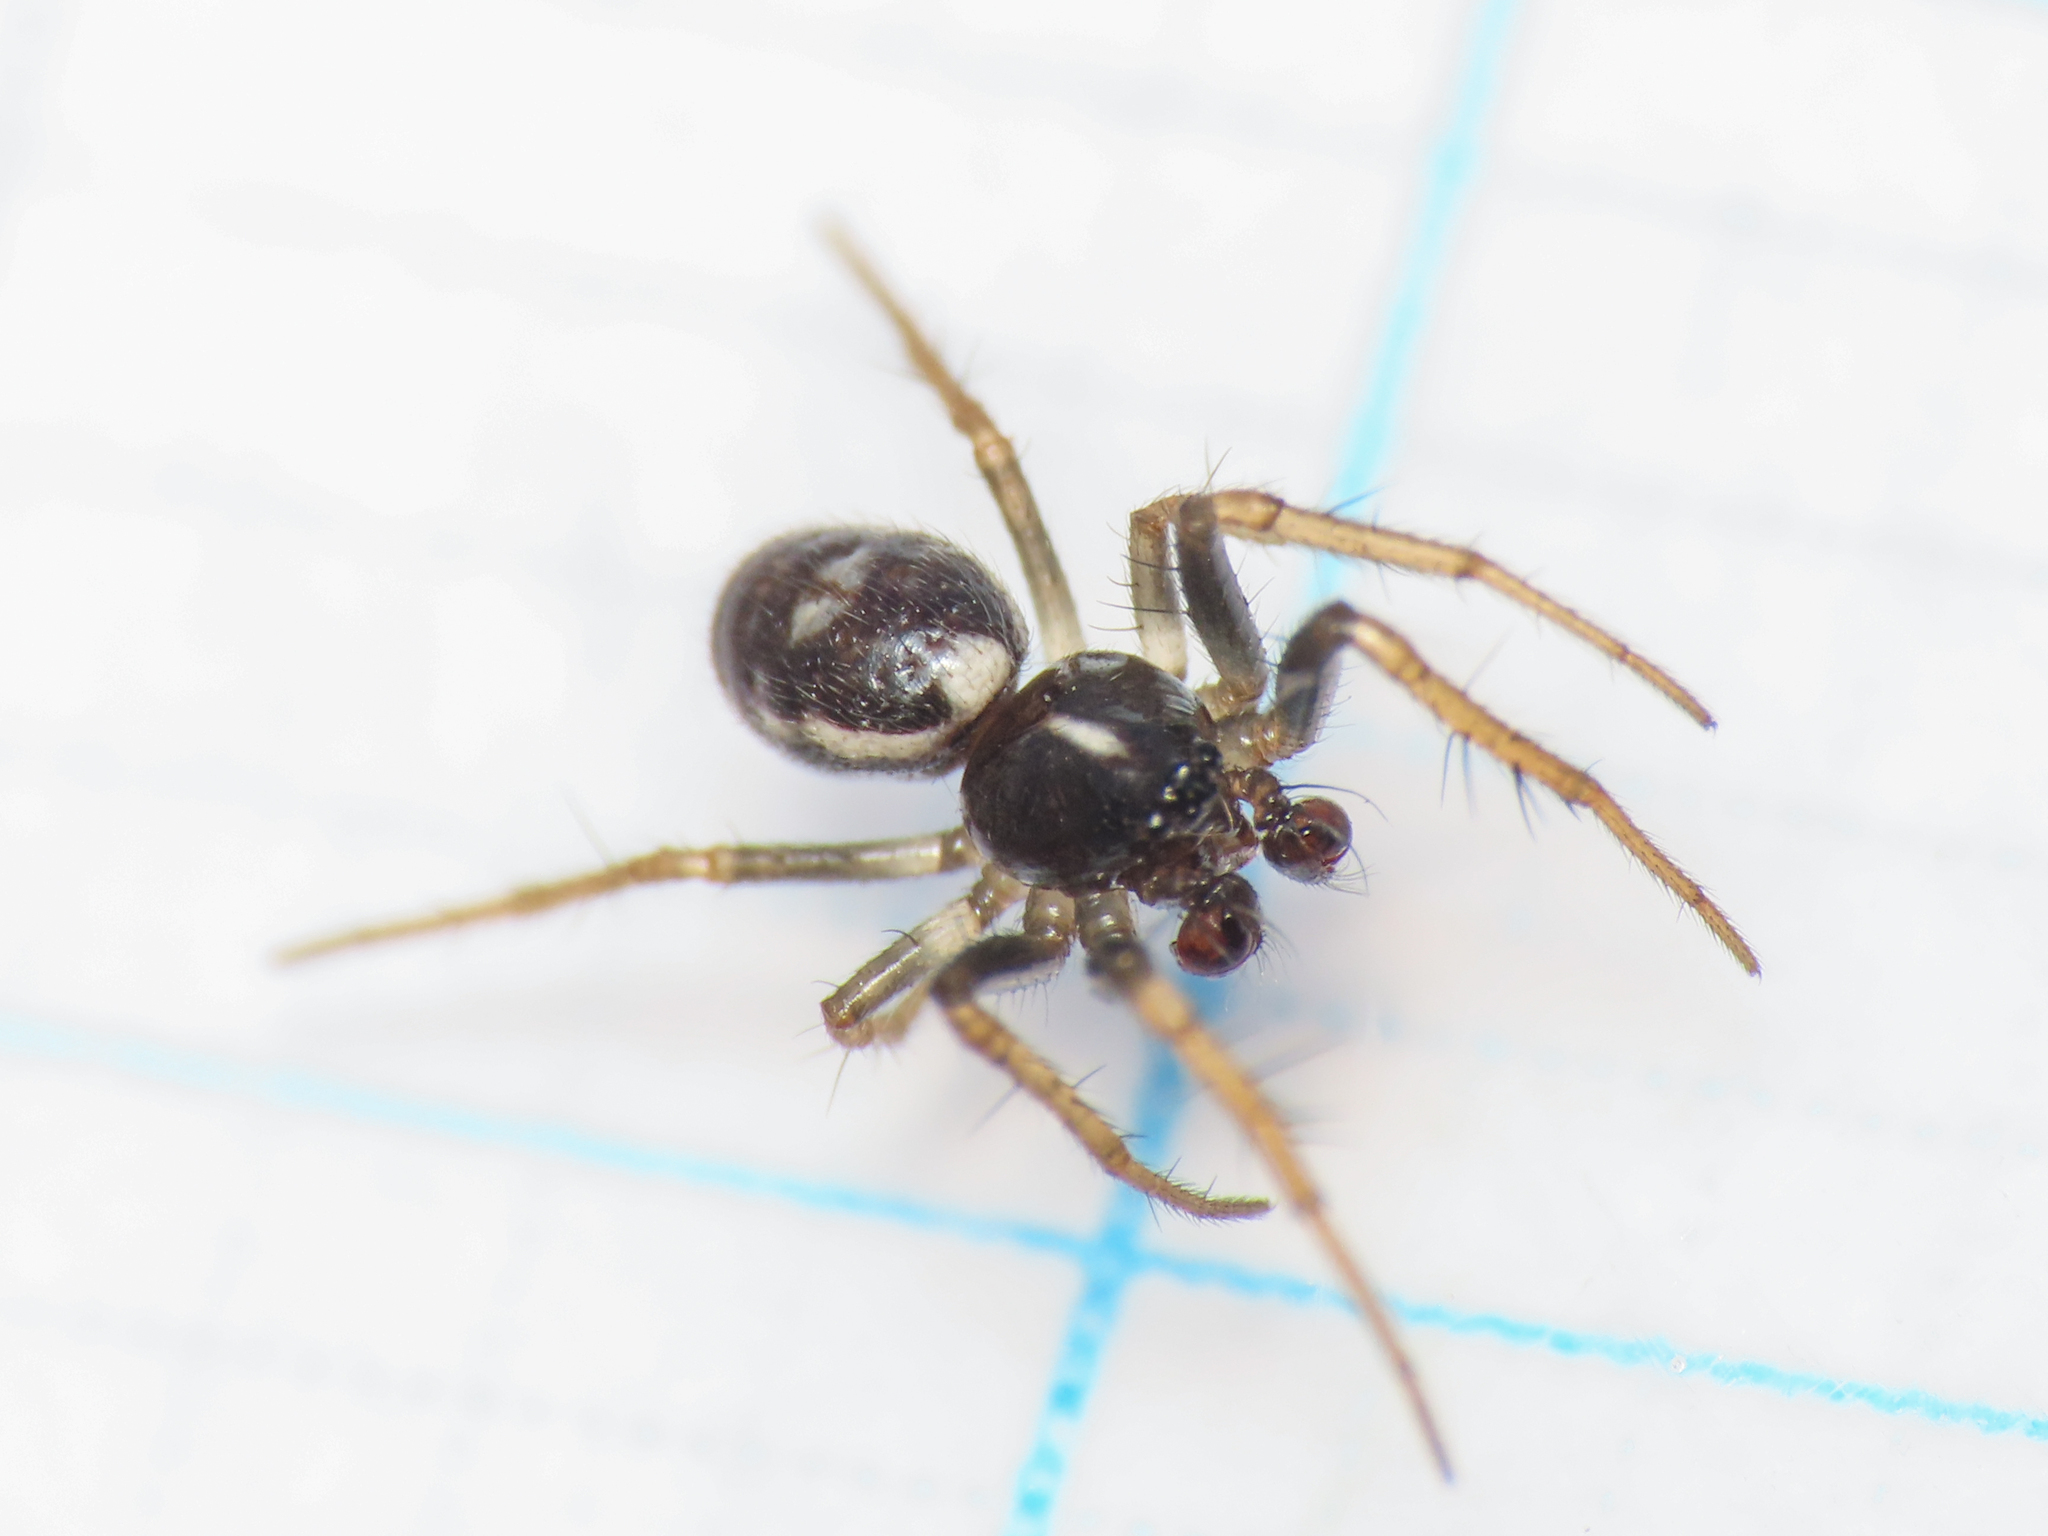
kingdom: Animalia
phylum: Arthropoda
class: Arachnida
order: Araneae
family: Araneidae
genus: Hypsosinga
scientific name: Hypsosinga albovittata
